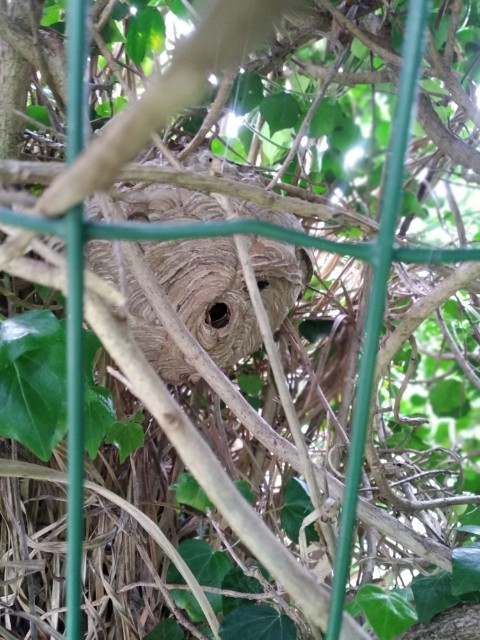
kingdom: Animalia
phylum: Arthropoda
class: Insecta
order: Hymenoptera
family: Vespidae
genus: Vespa
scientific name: Vespa velutina
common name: Asian hornet
